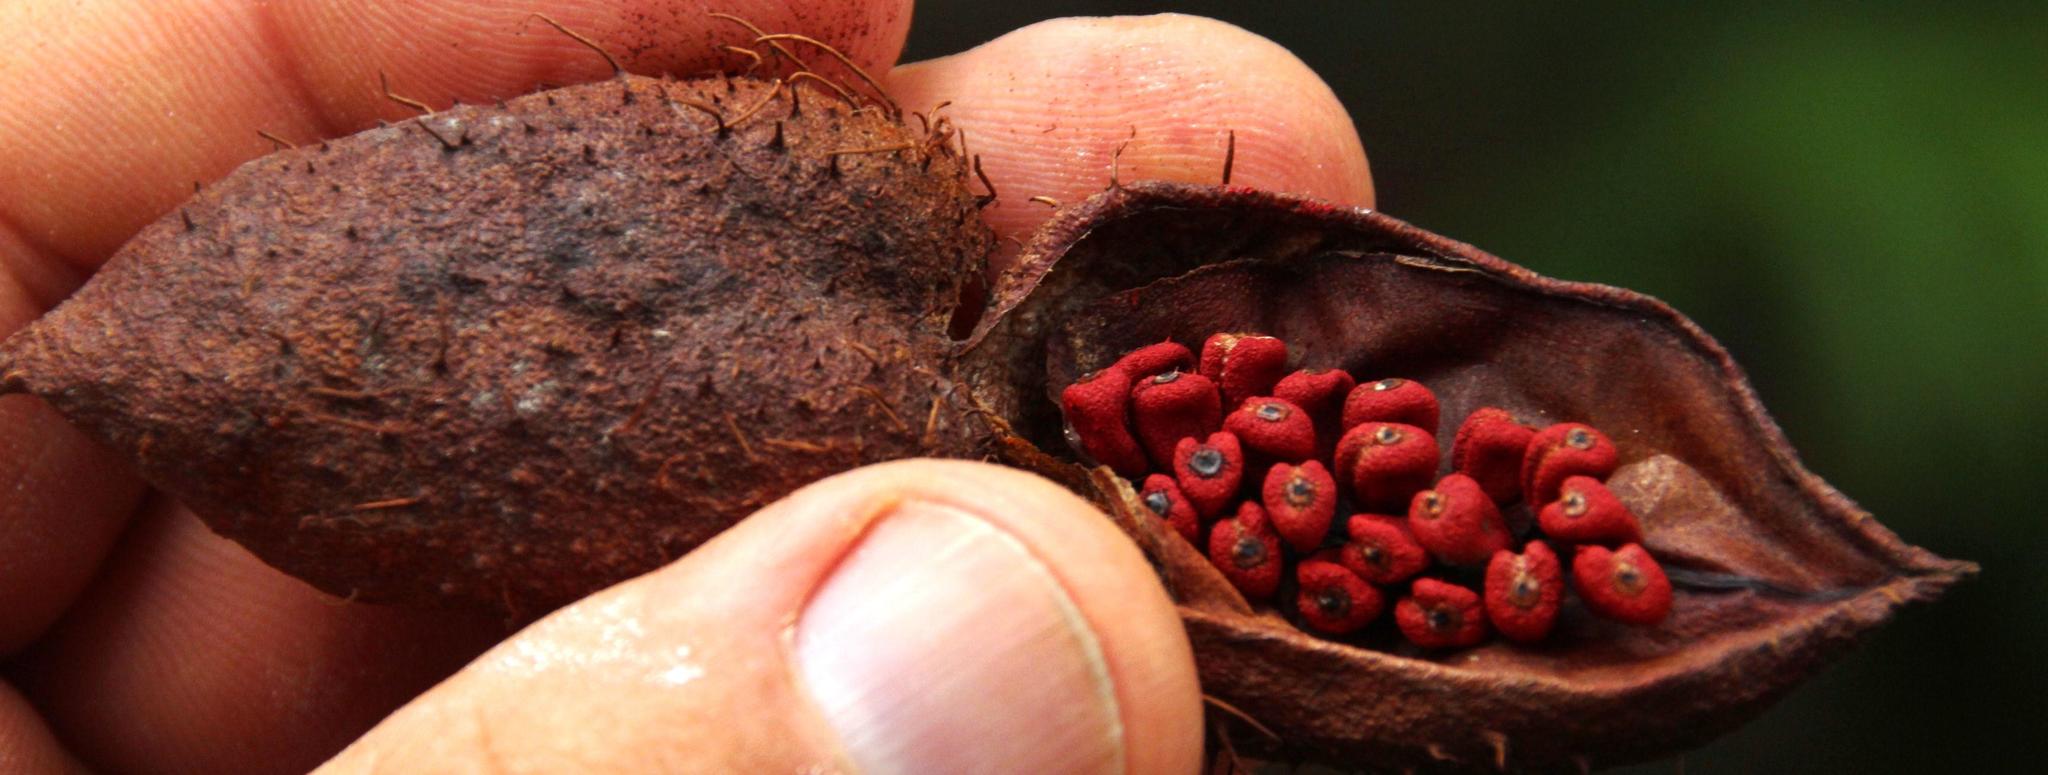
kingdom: Plantae
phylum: Tracheophyta
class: Magnoliopsida
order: Malvales
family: Bixaceae
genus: Bixa
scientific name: Bixa orellana
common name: Lipsticktree
